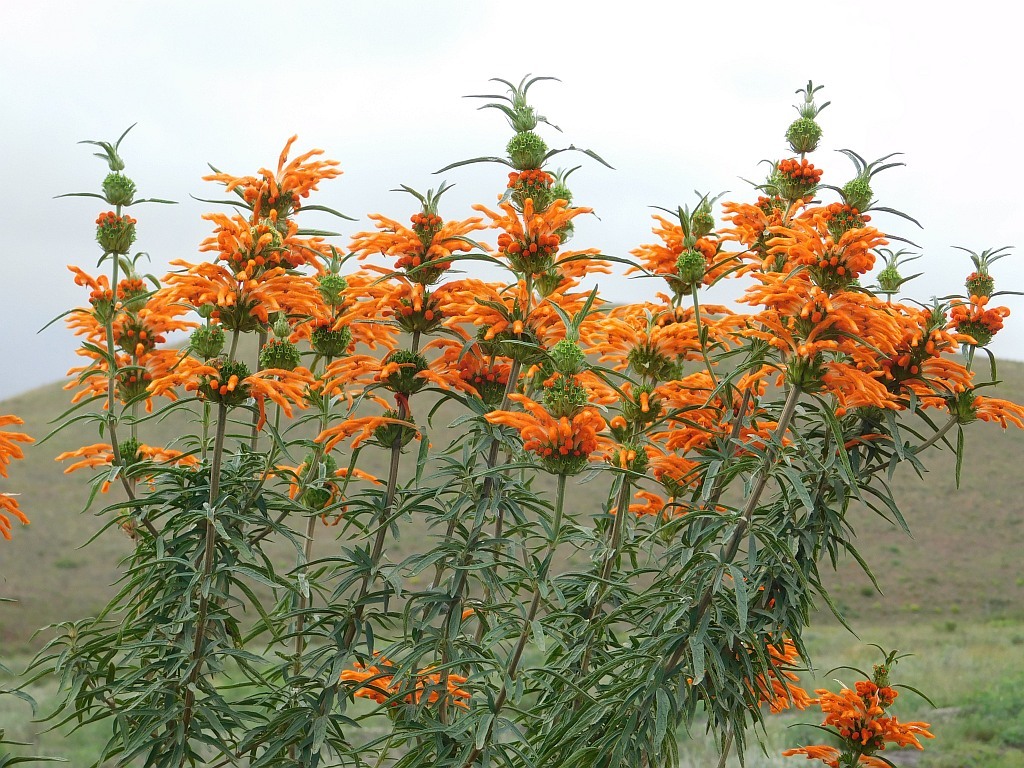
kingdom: Plantae
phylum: Tracheophyta
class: Magnoliopsida
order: Lamiales
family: Lamiaceae
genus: Leonotis
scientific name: Leonotis leonurus
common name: Lion's ear
